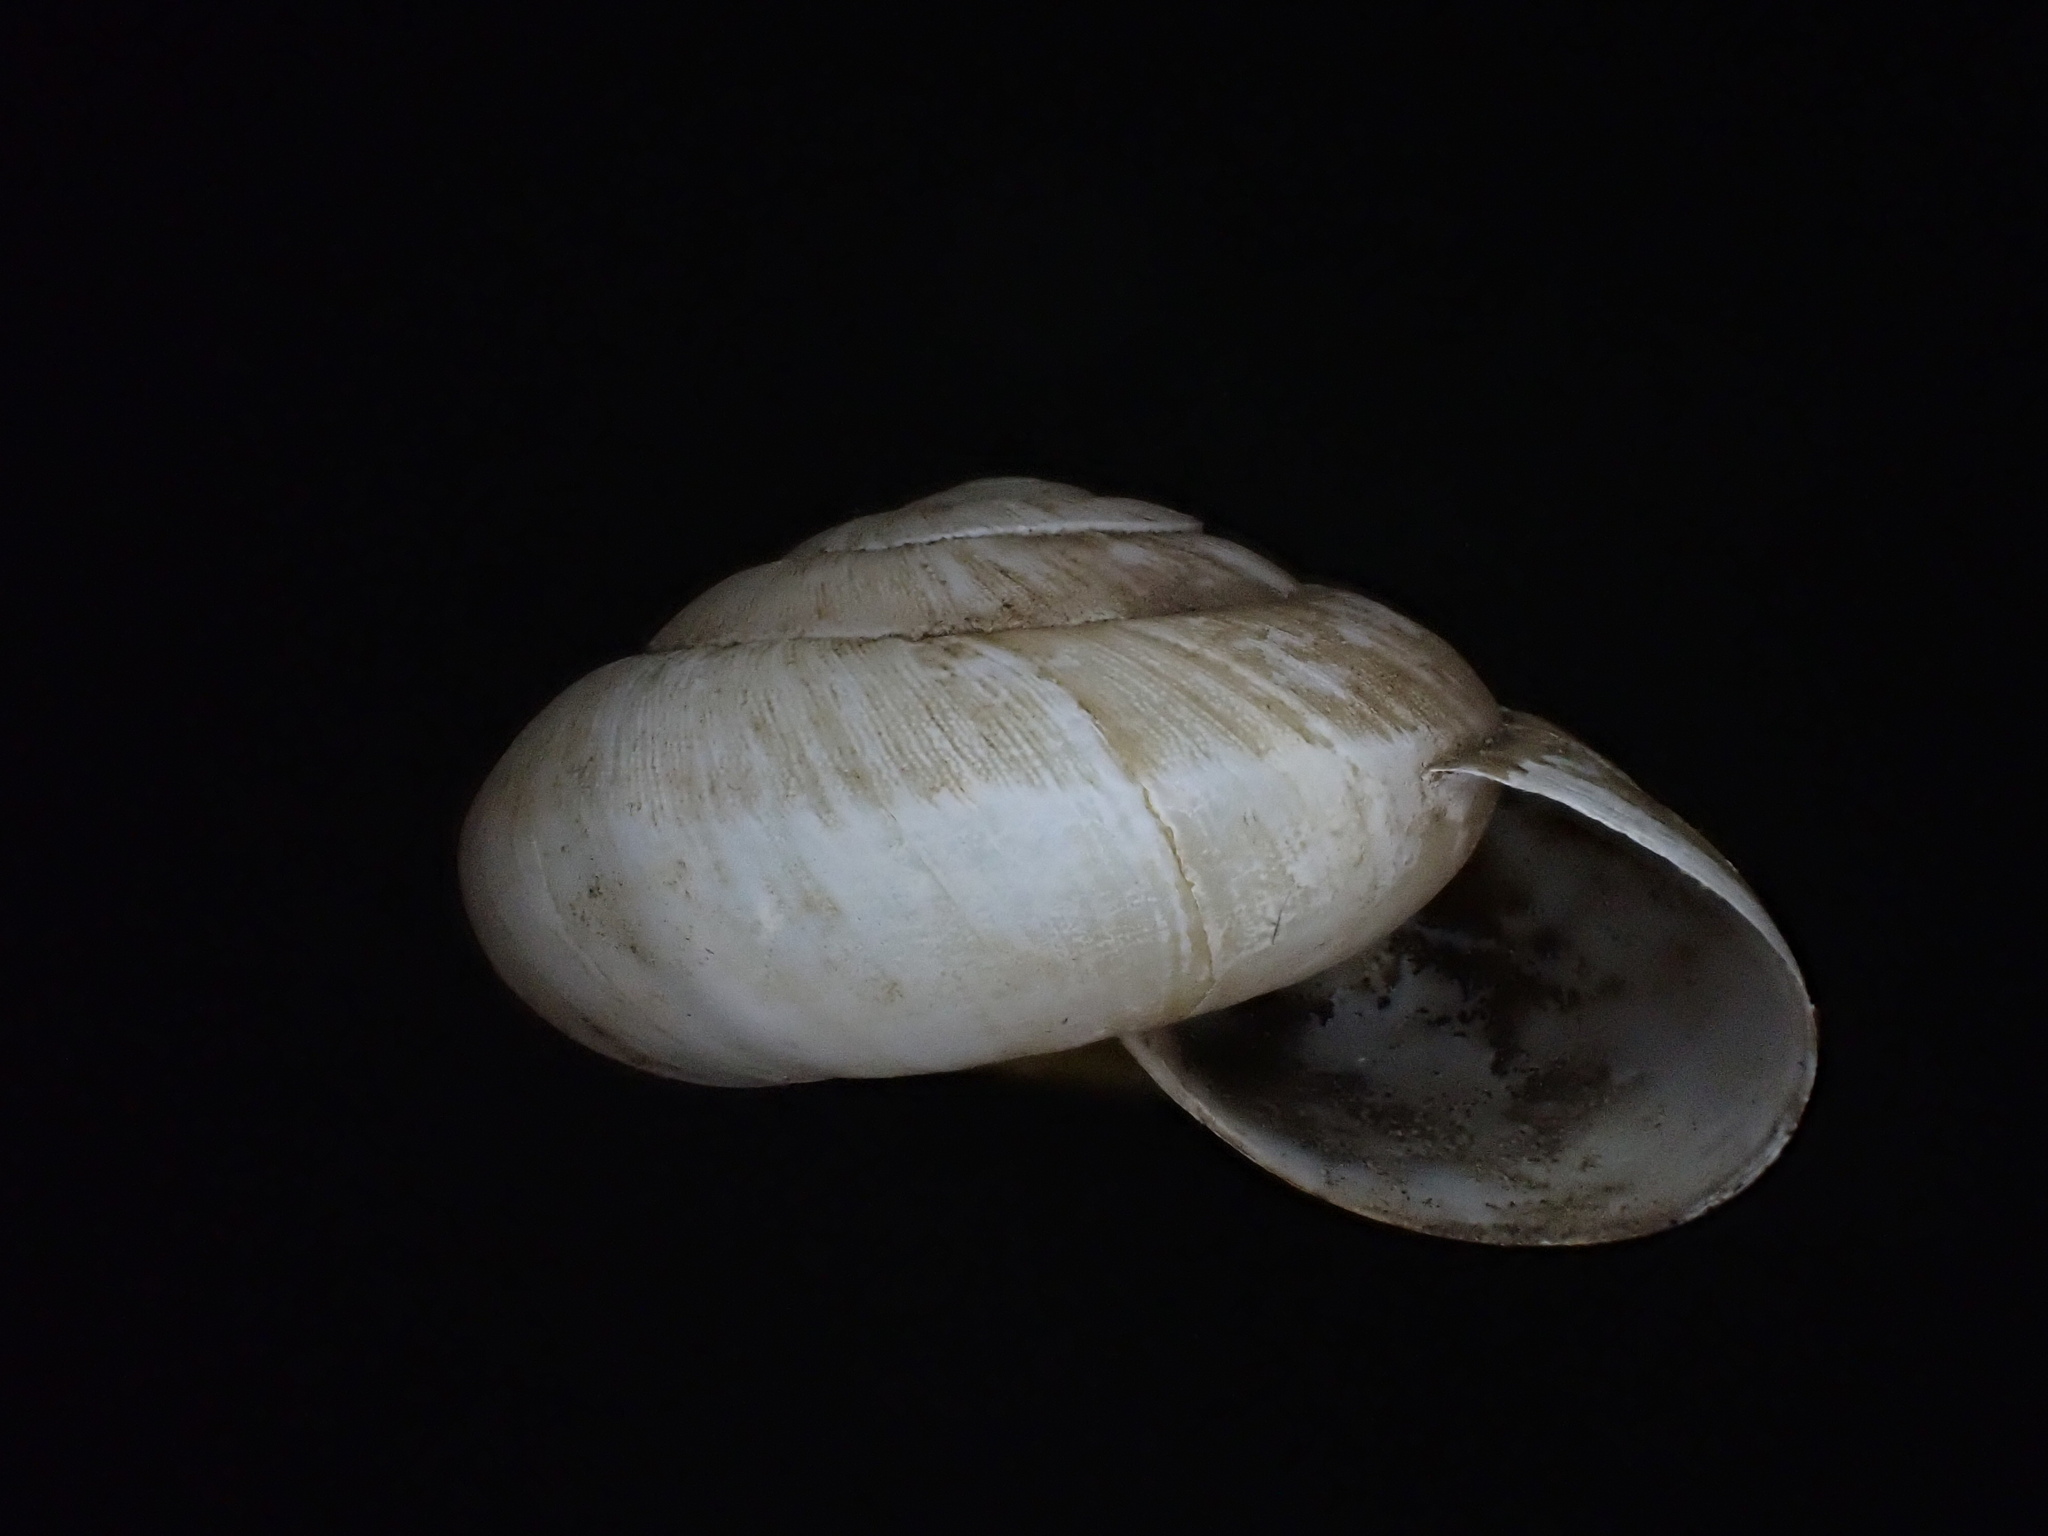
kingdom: Animalia
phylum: Mollusca
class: Gastropoda
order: Stylommatophora
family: Zonitidae
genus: Zonites
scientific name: Zonites algirus
